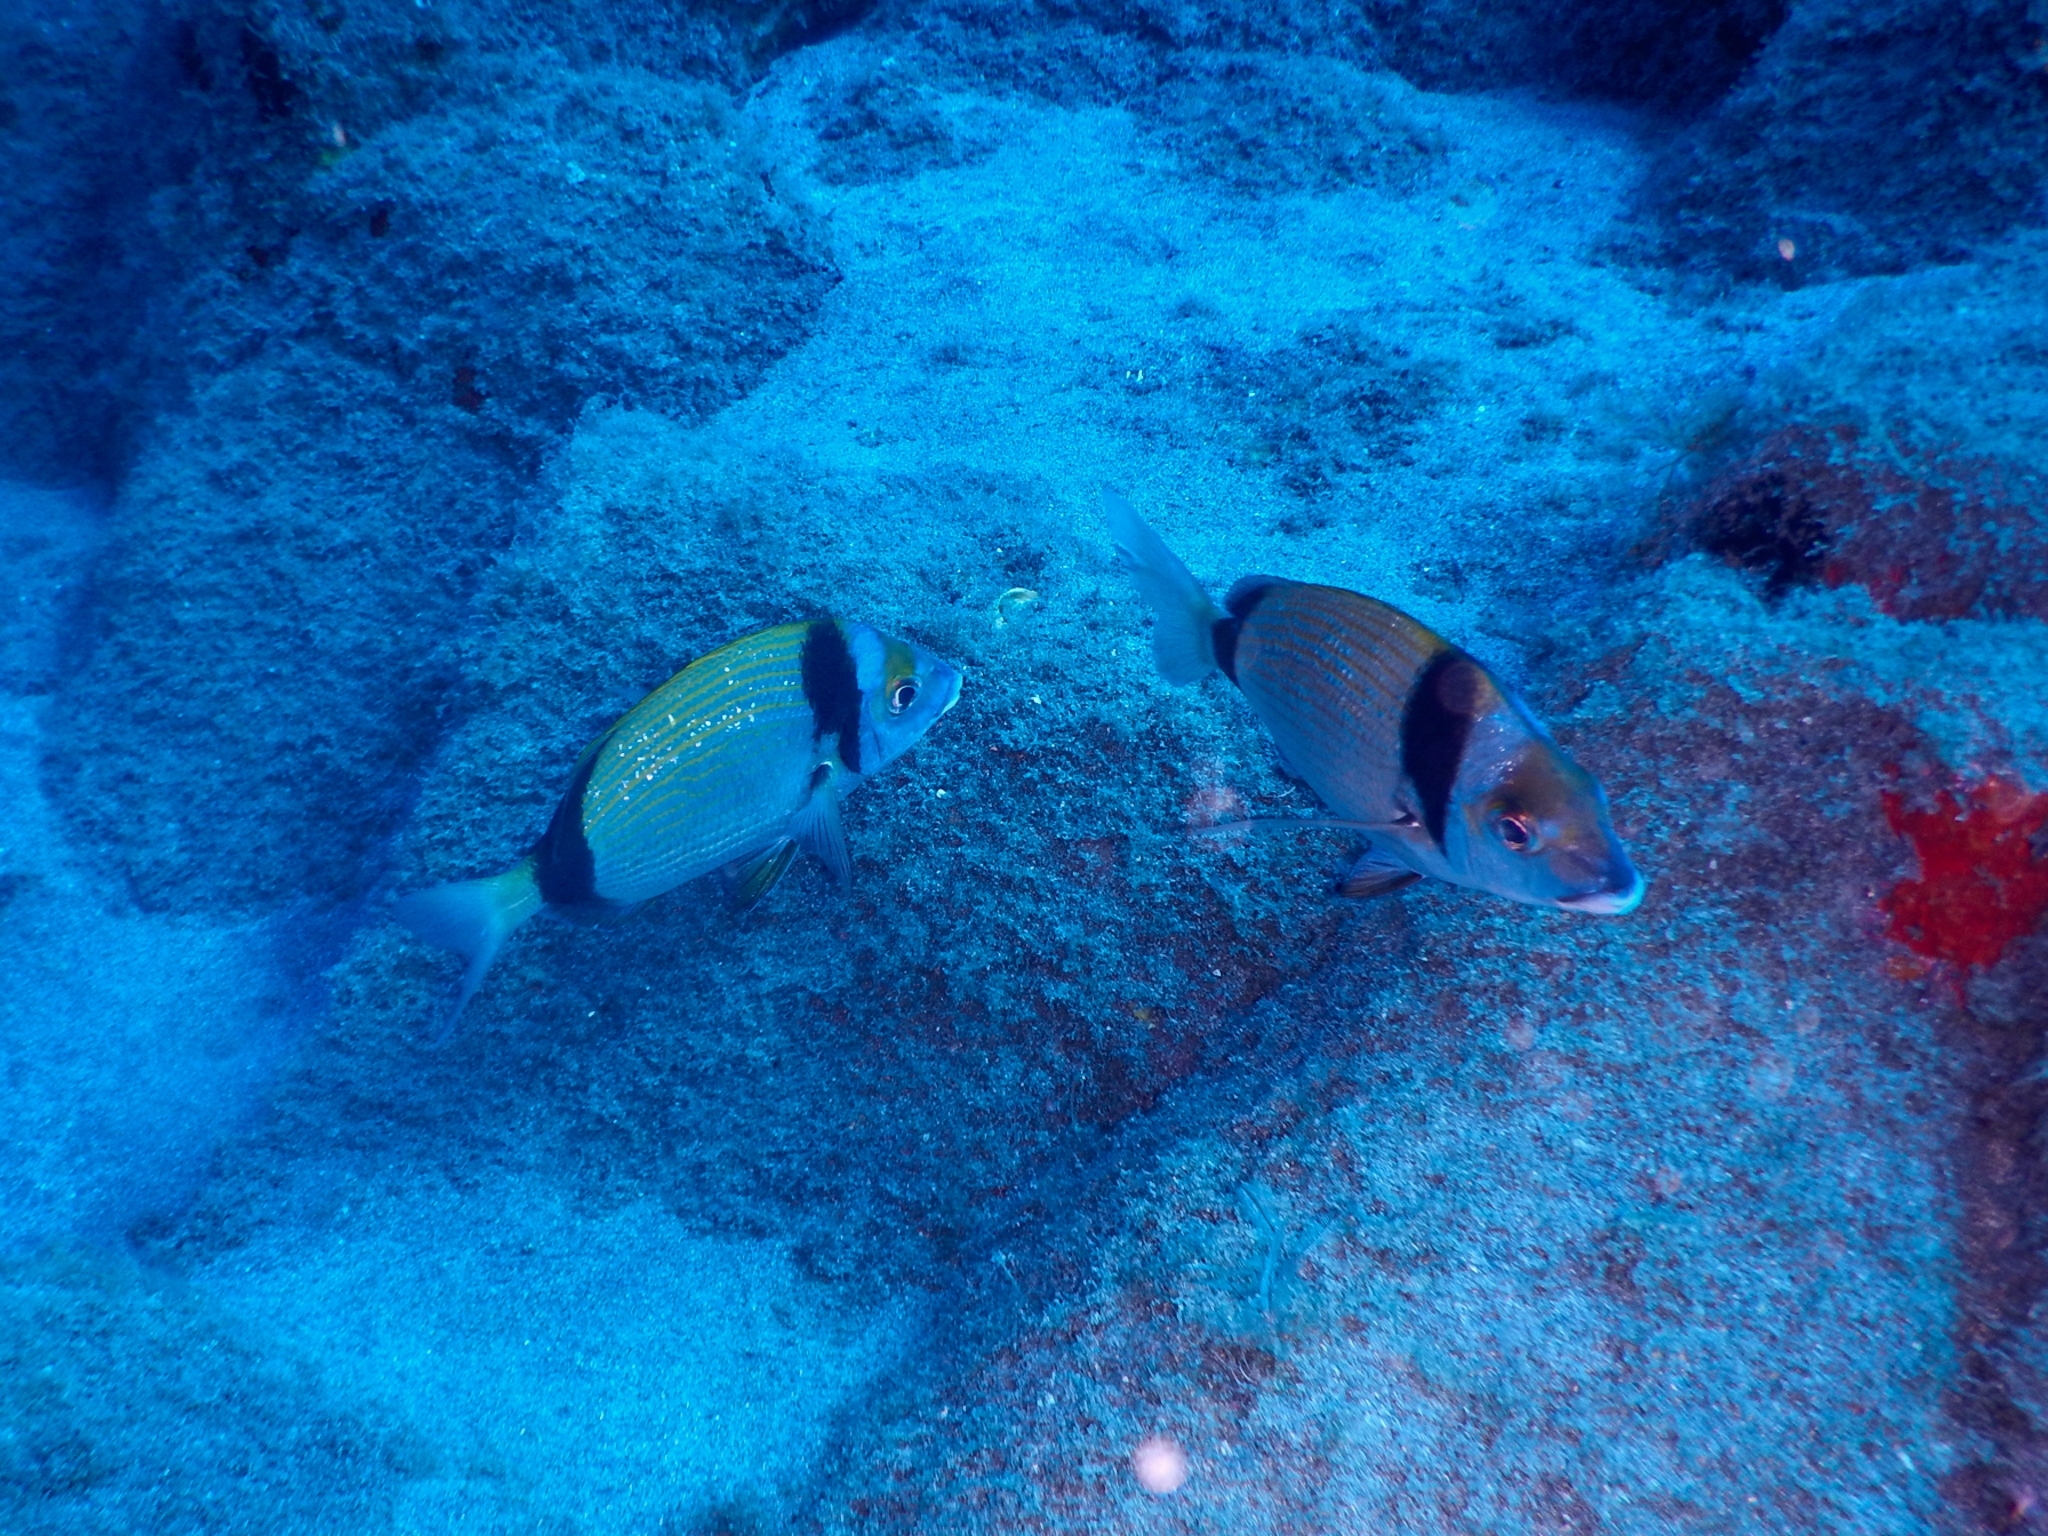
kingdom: Animalia
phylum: Chordata
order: Perciformes
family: Sparidae
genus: Diplodus
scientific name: Diplodus vulgaris
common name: Common two-banded seabream
